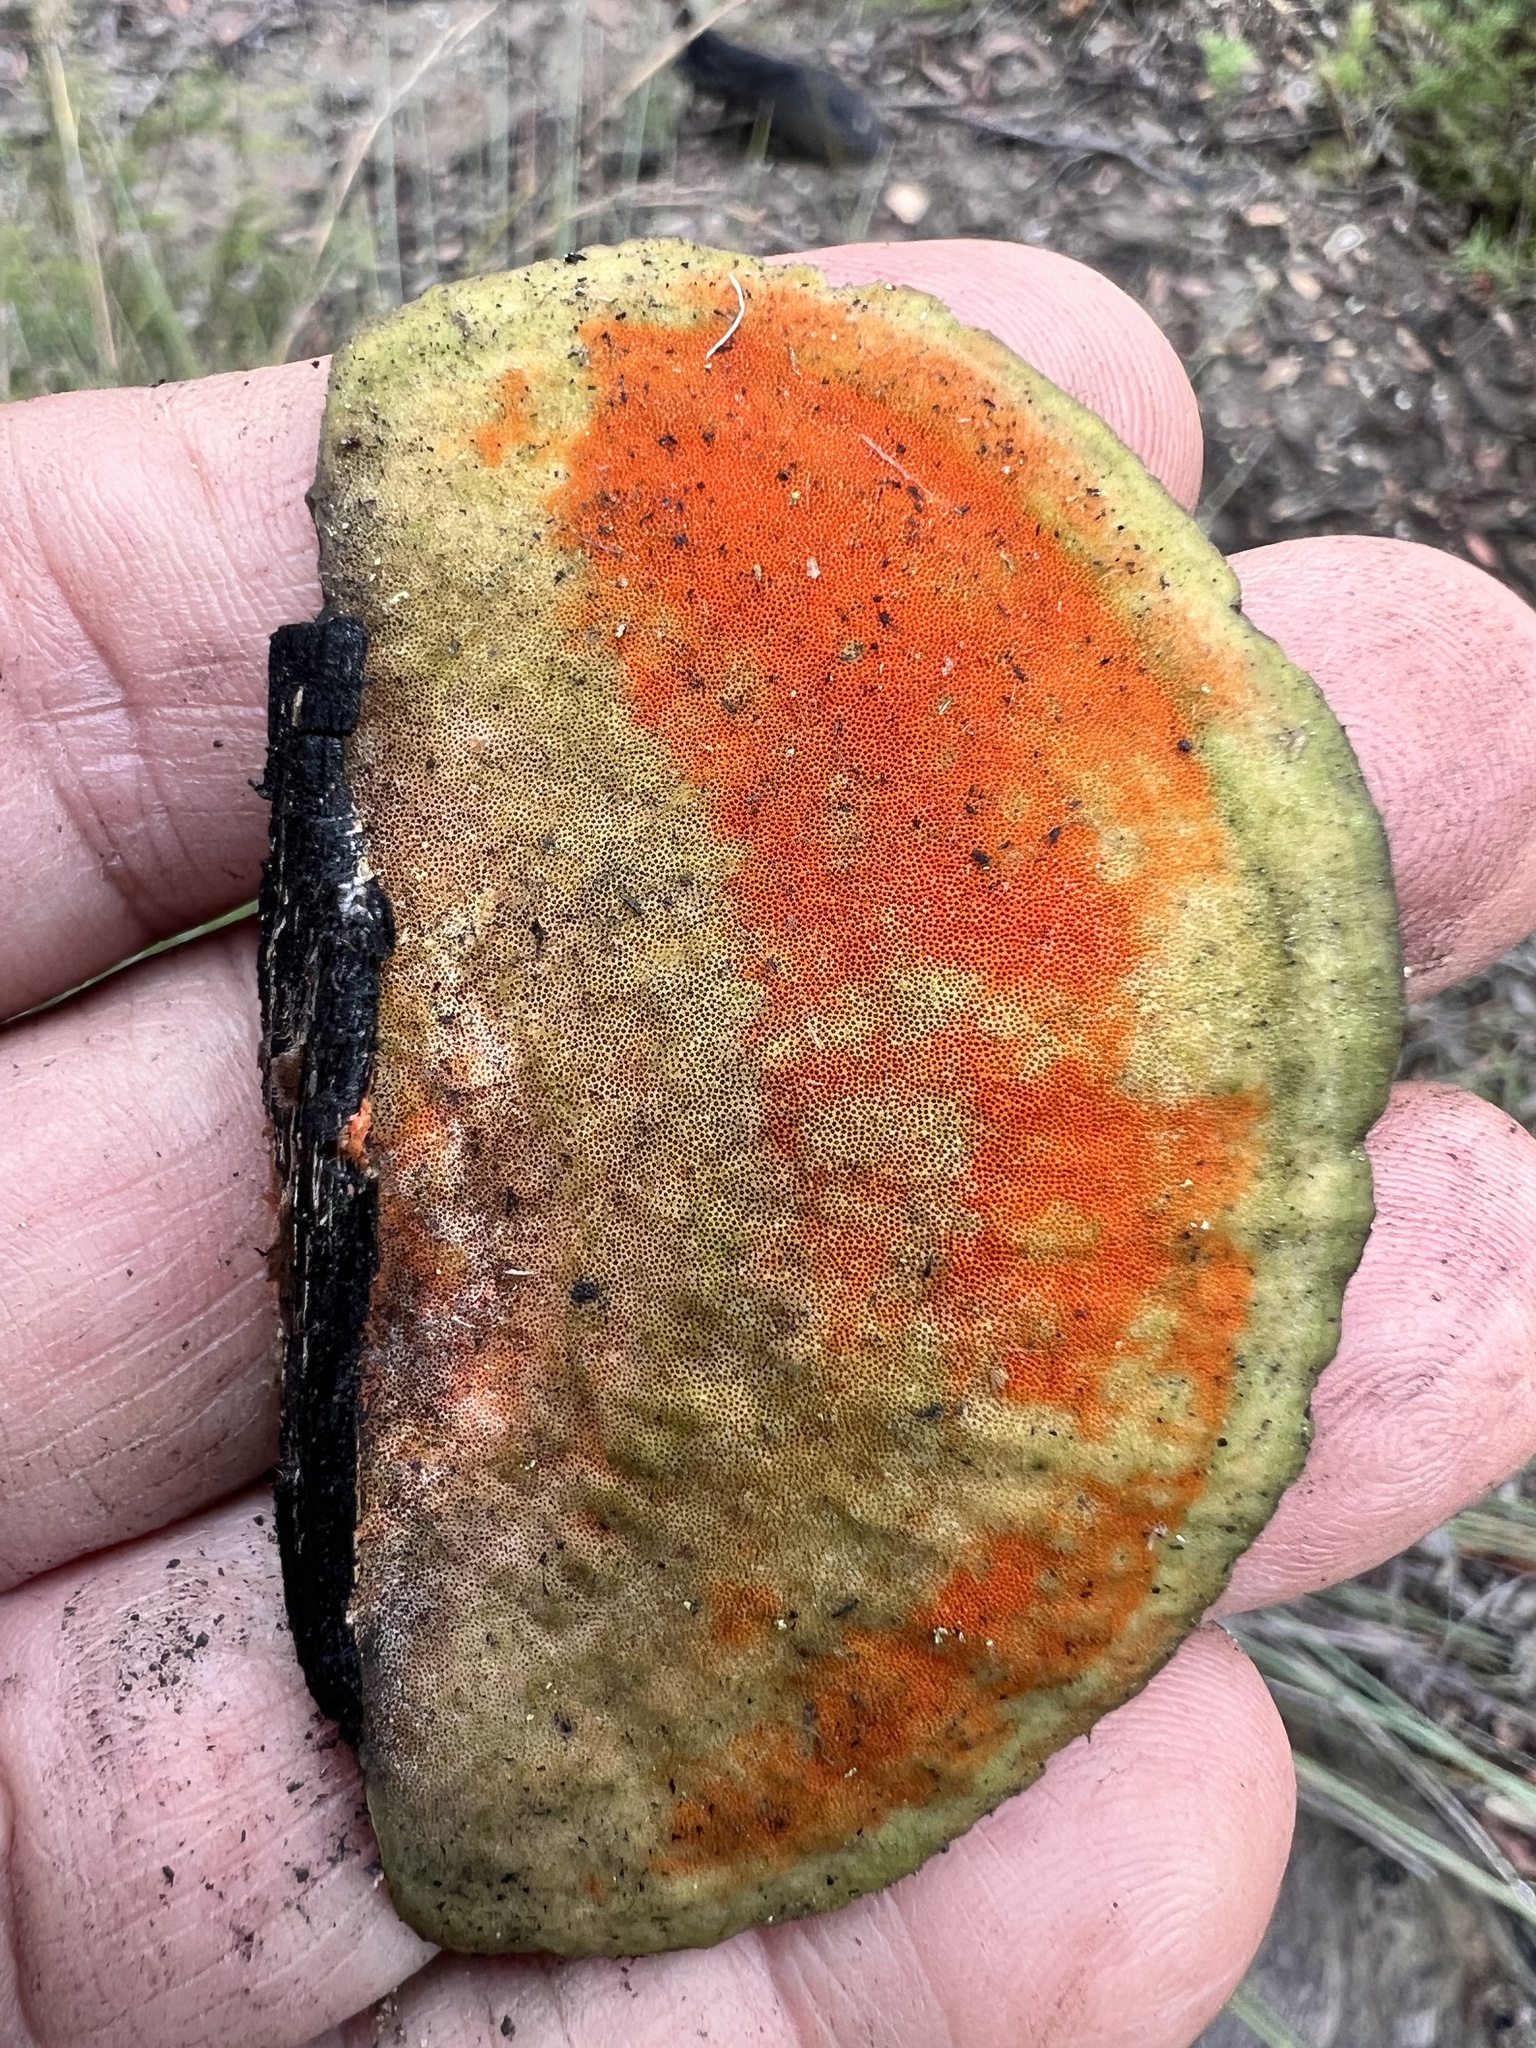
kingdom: Fungi
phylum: Basidiomycota
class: Agaricomycetes
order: Polyporales
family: Polyporaceae
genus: Trametes
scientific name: Trametes coccinea
